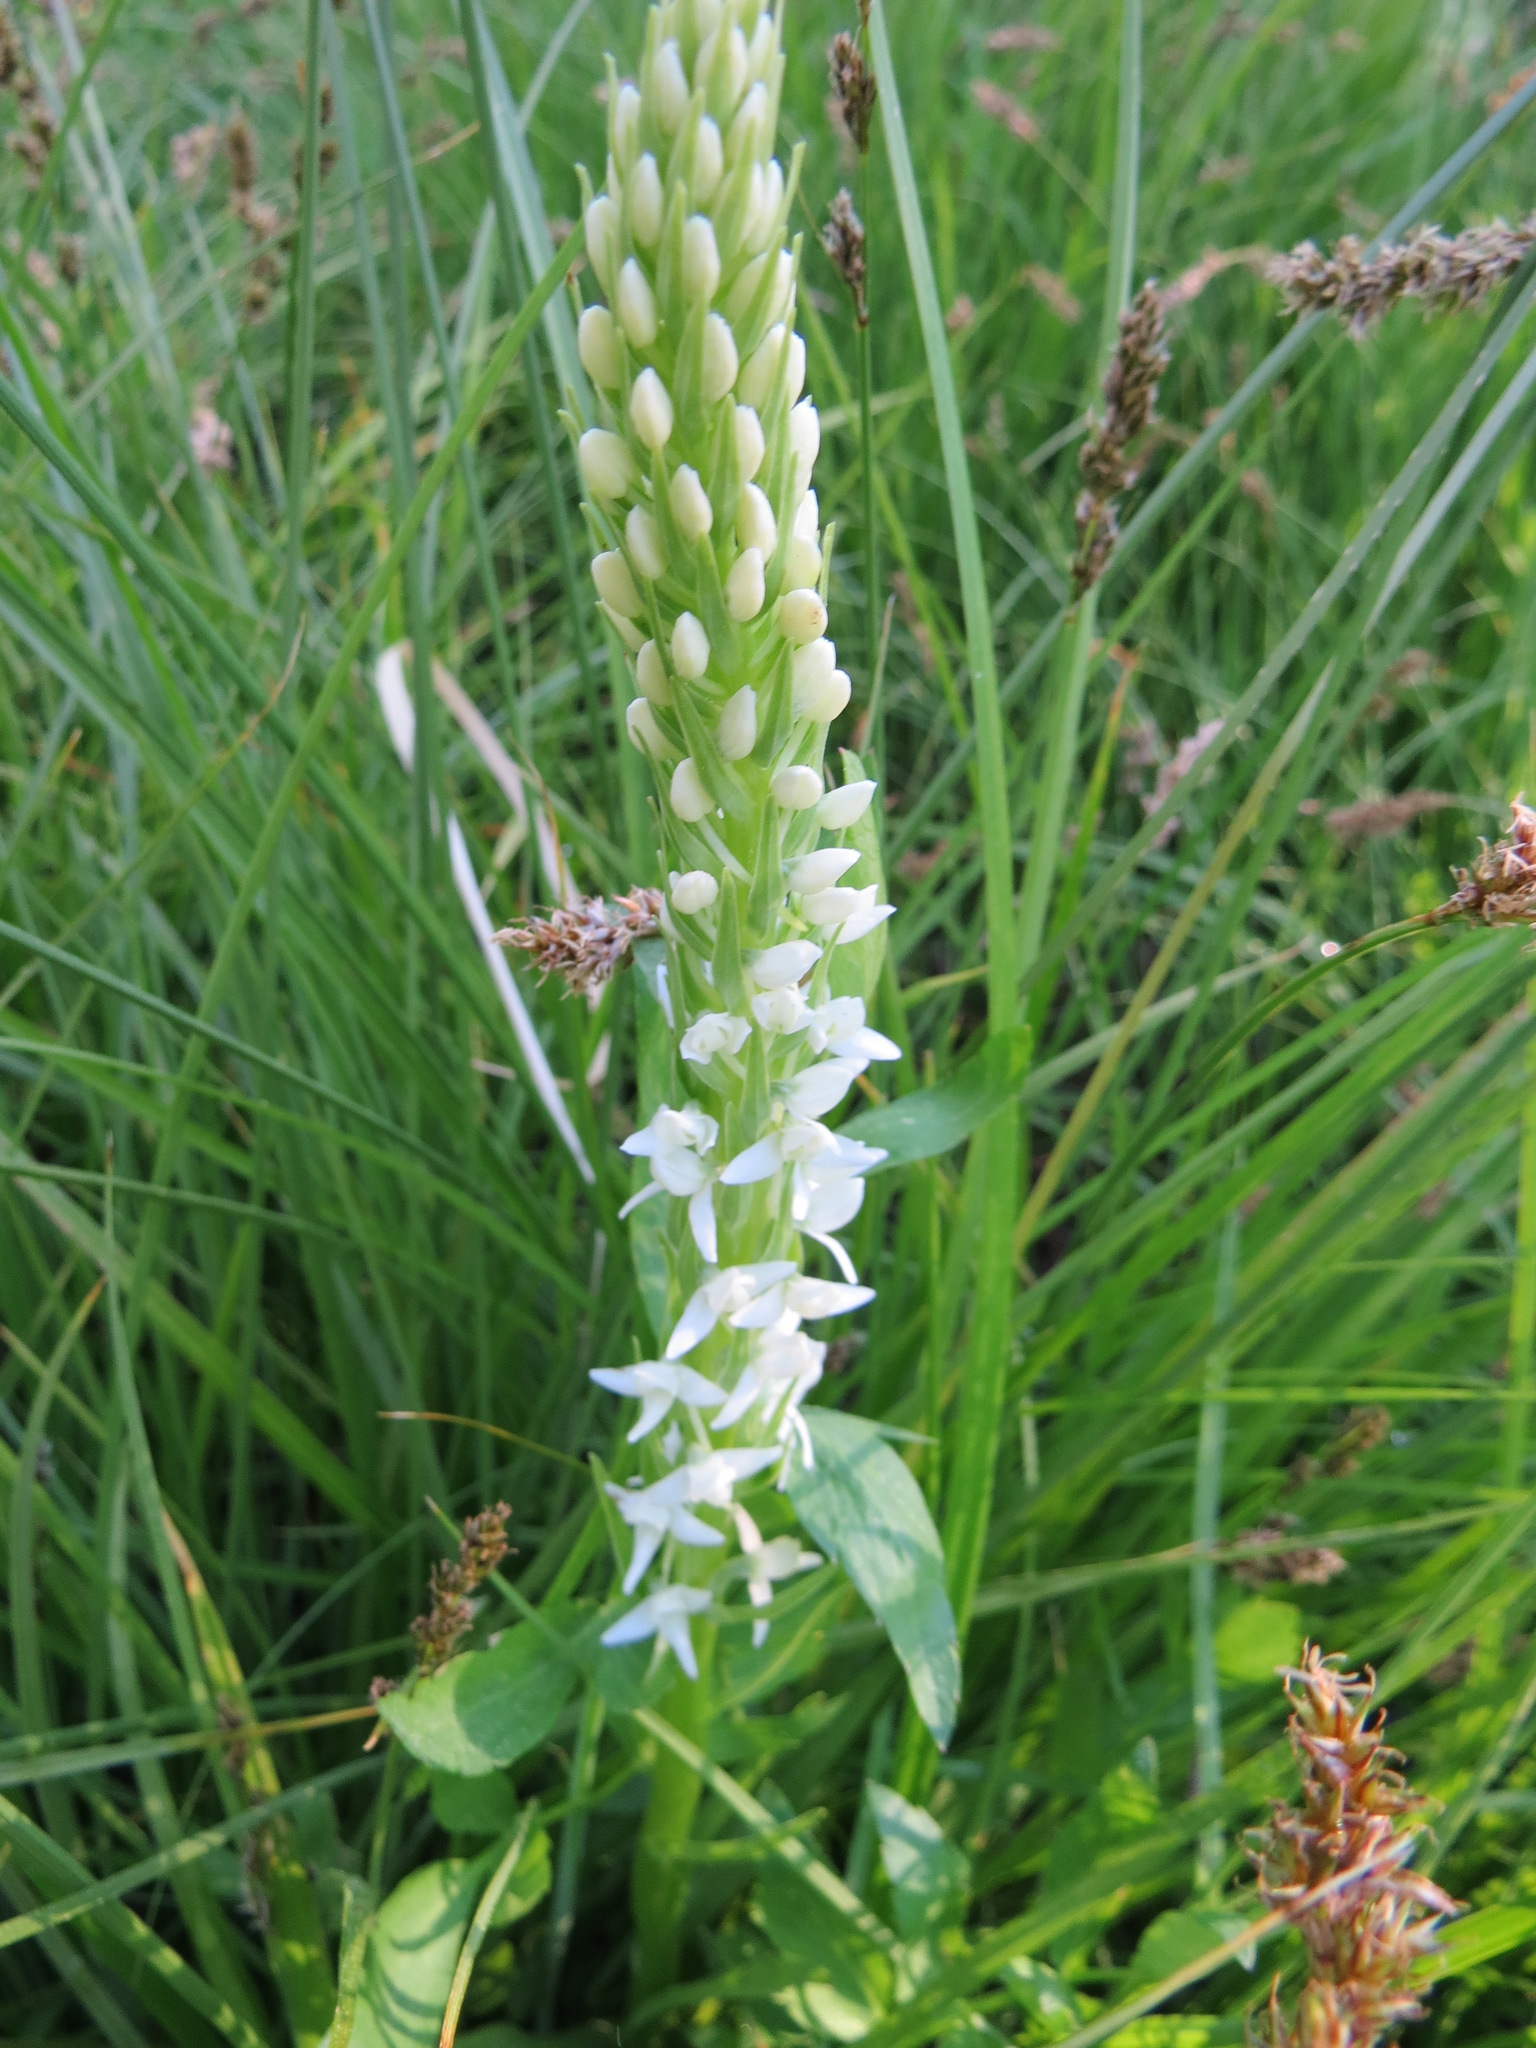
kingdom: Plantae
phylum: Tracheophyta
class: Liliopsida
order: Asparagales
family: Orchidaceae
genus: Platanthera
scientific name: Platanthera dilatata
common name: Bog candles
